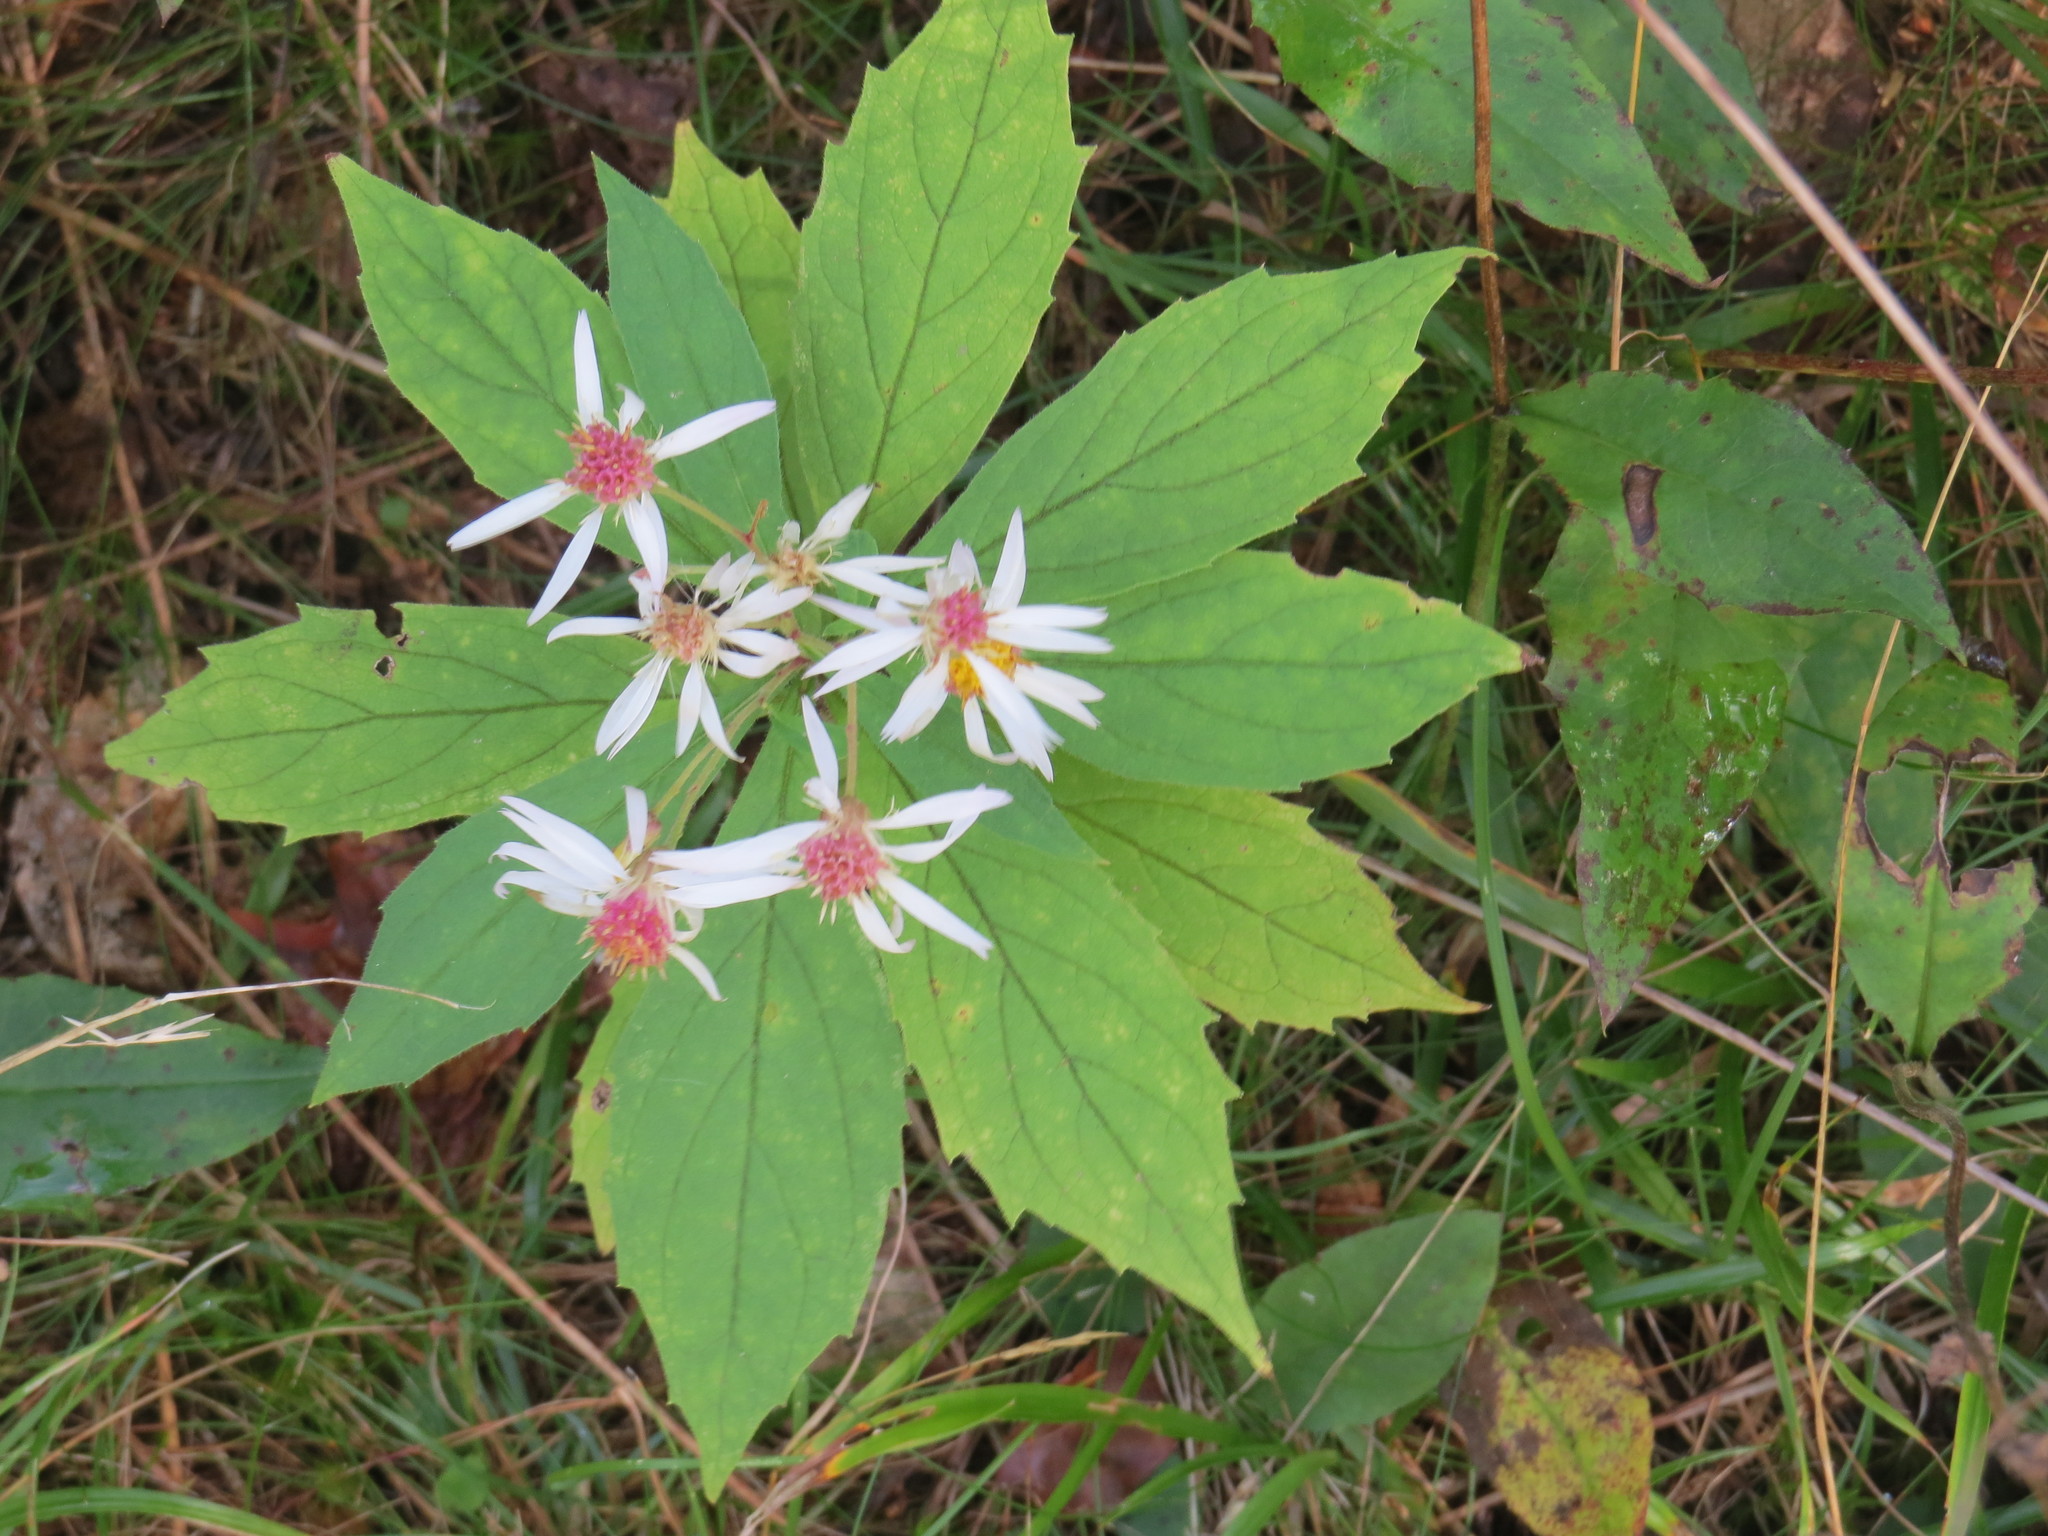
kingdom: Plantae
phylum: Tracheophyta
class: Magnoliopsida
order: Asterales
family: Asteraceae
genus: Oclemena
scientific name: Oclemena acuminata
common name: Mountain aster
